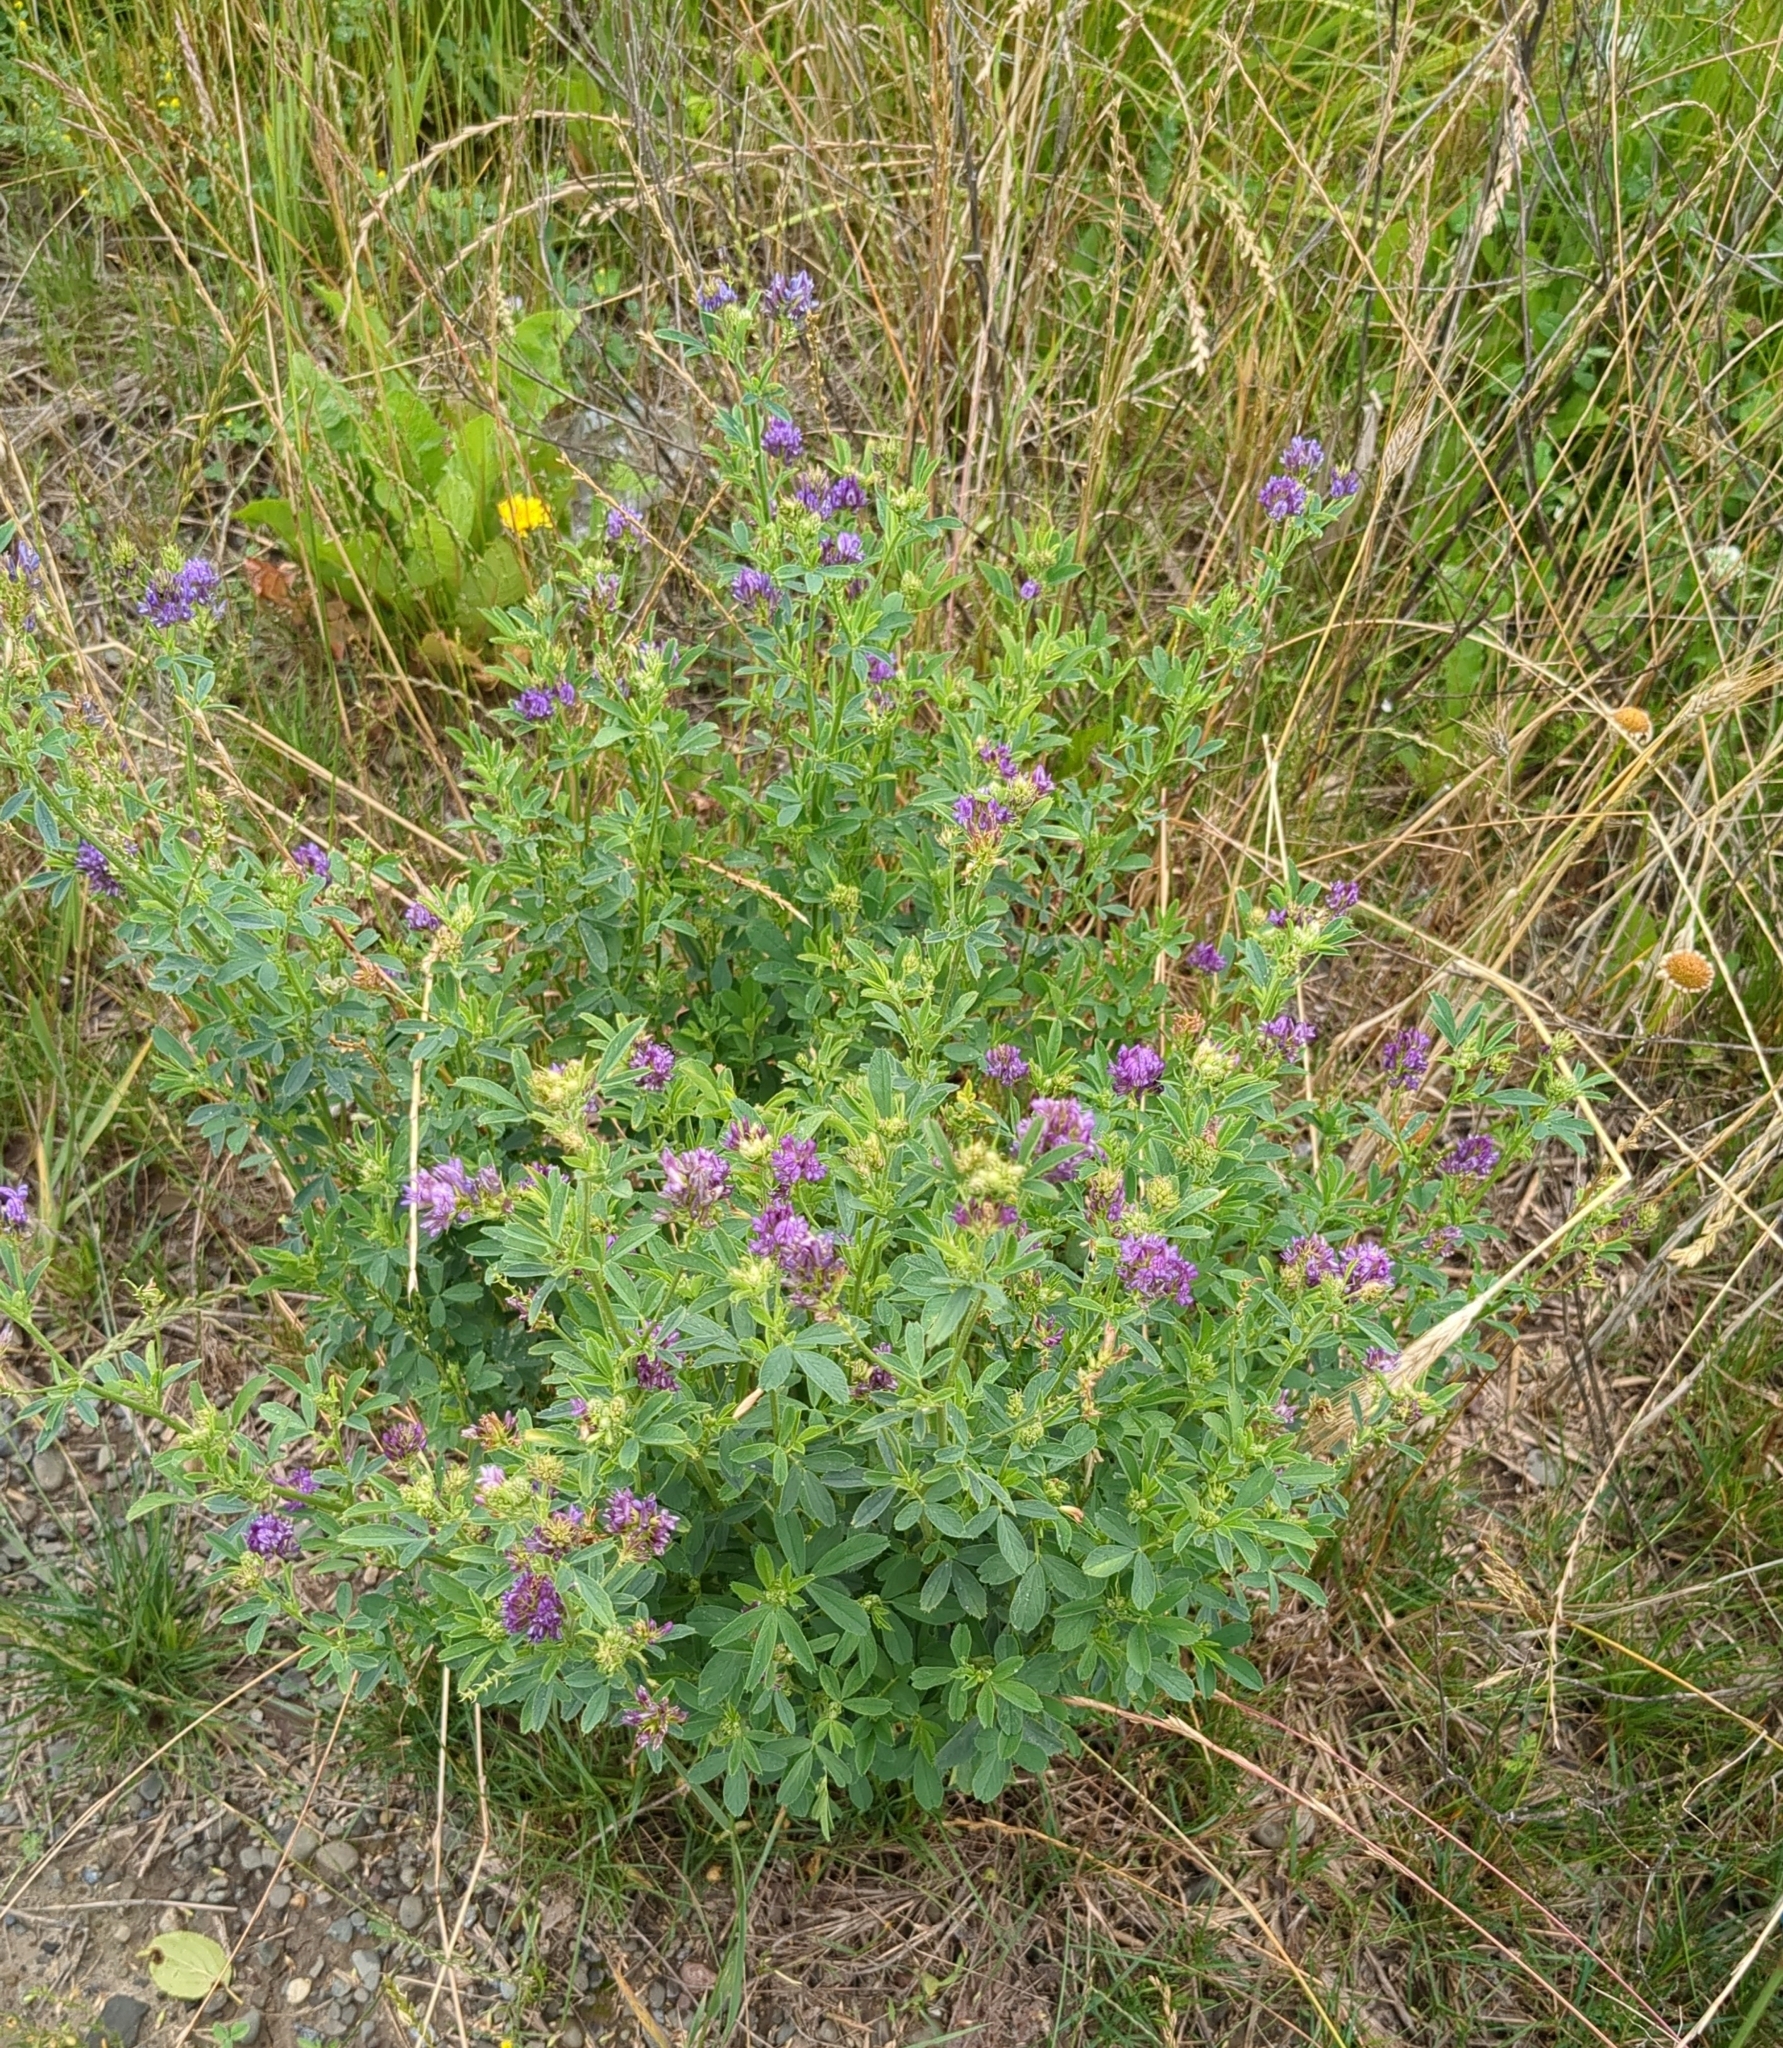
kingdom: Plantae
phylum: Tracheophyta
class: Magnoliopsida
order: Fabales
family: Fabaceae
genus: Medicago
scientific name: Medicago sativa
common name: Alfalfa
